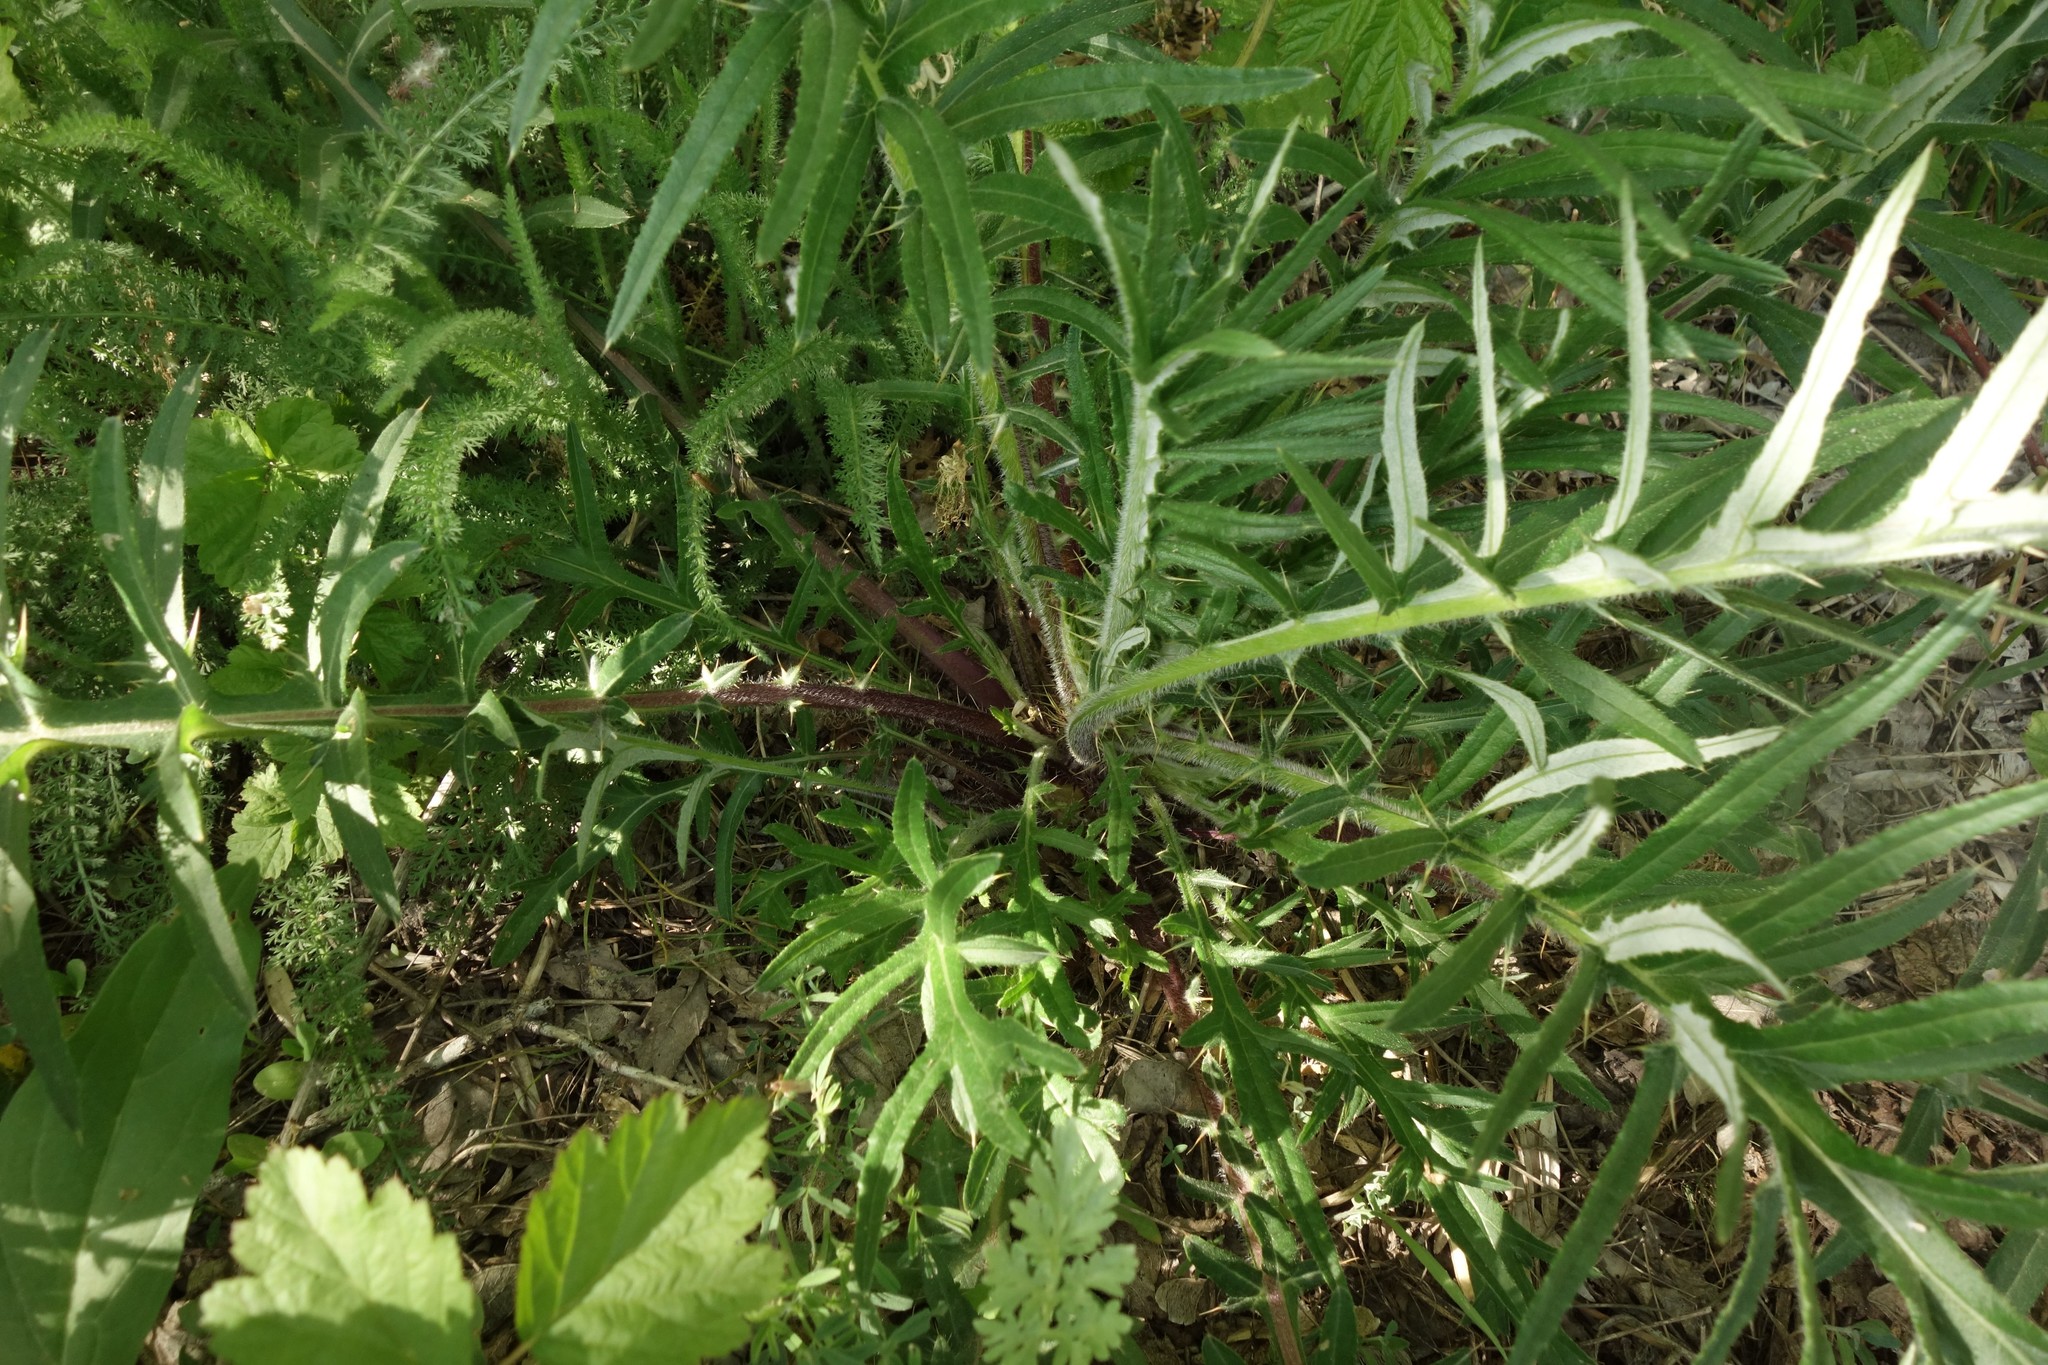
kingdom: Plantae
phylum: Tracheophyta
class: Magnoliopsida
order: Asterales
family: Asteraceae
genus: Cirsium
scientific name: Cirsium serrulatum
